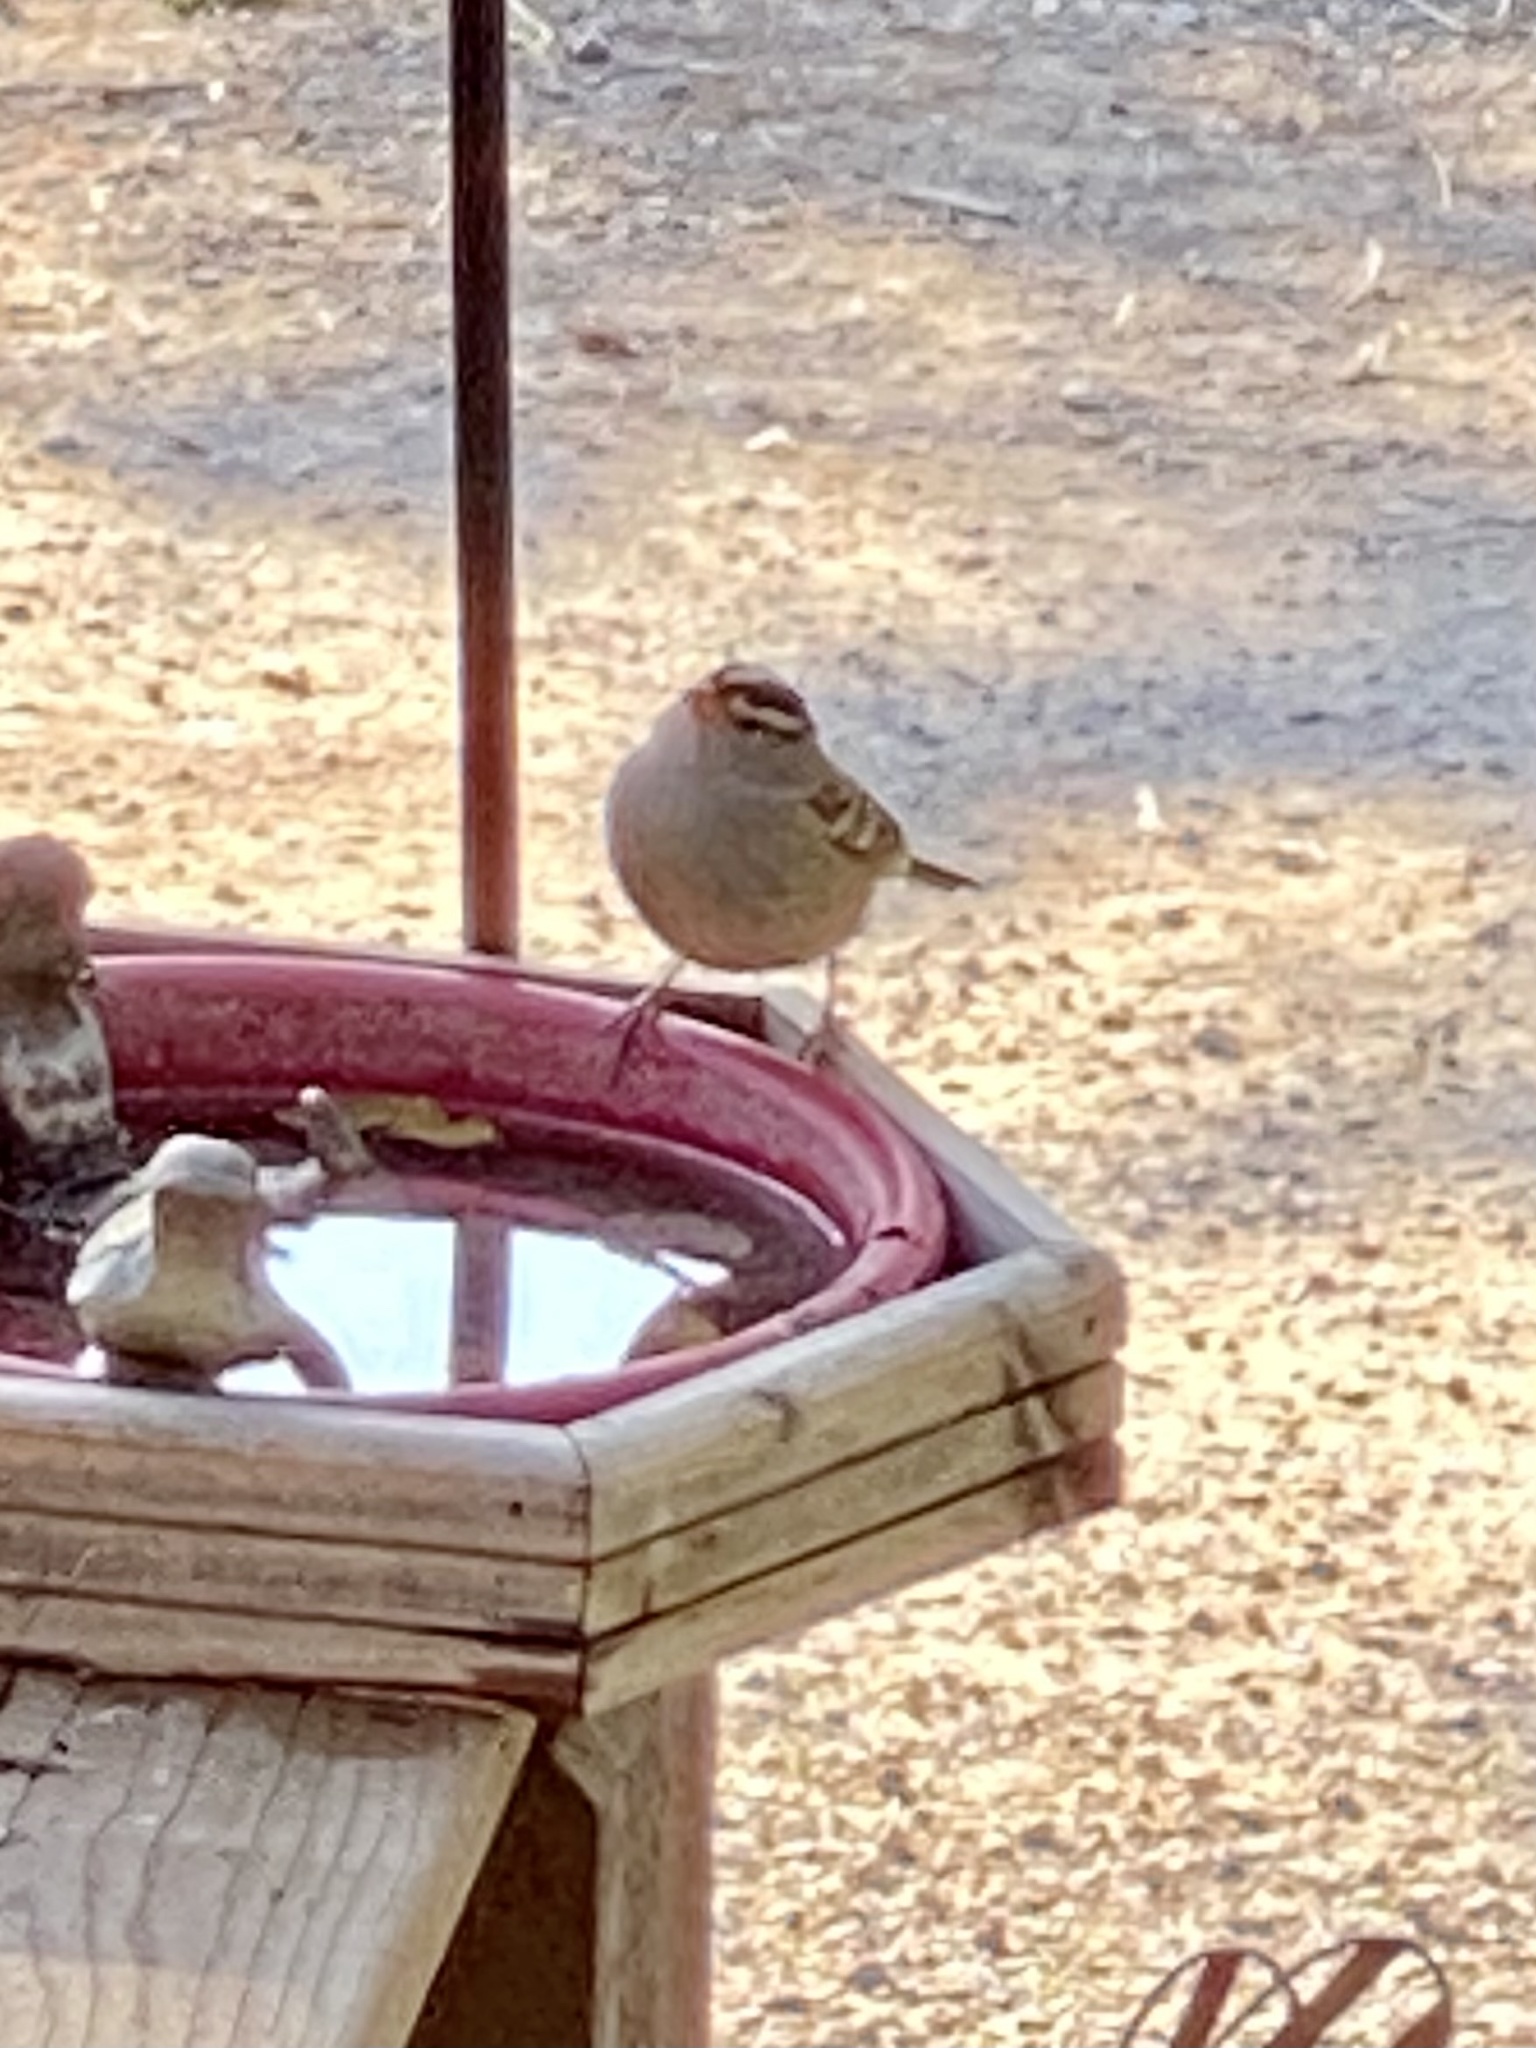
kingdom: Animalia
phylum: Chordata
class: Aves
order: Passeriformes
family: Passerellidae
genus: Zonotrichia
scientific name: Zonotrichia leucophrys
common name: White-crowned sparrow
